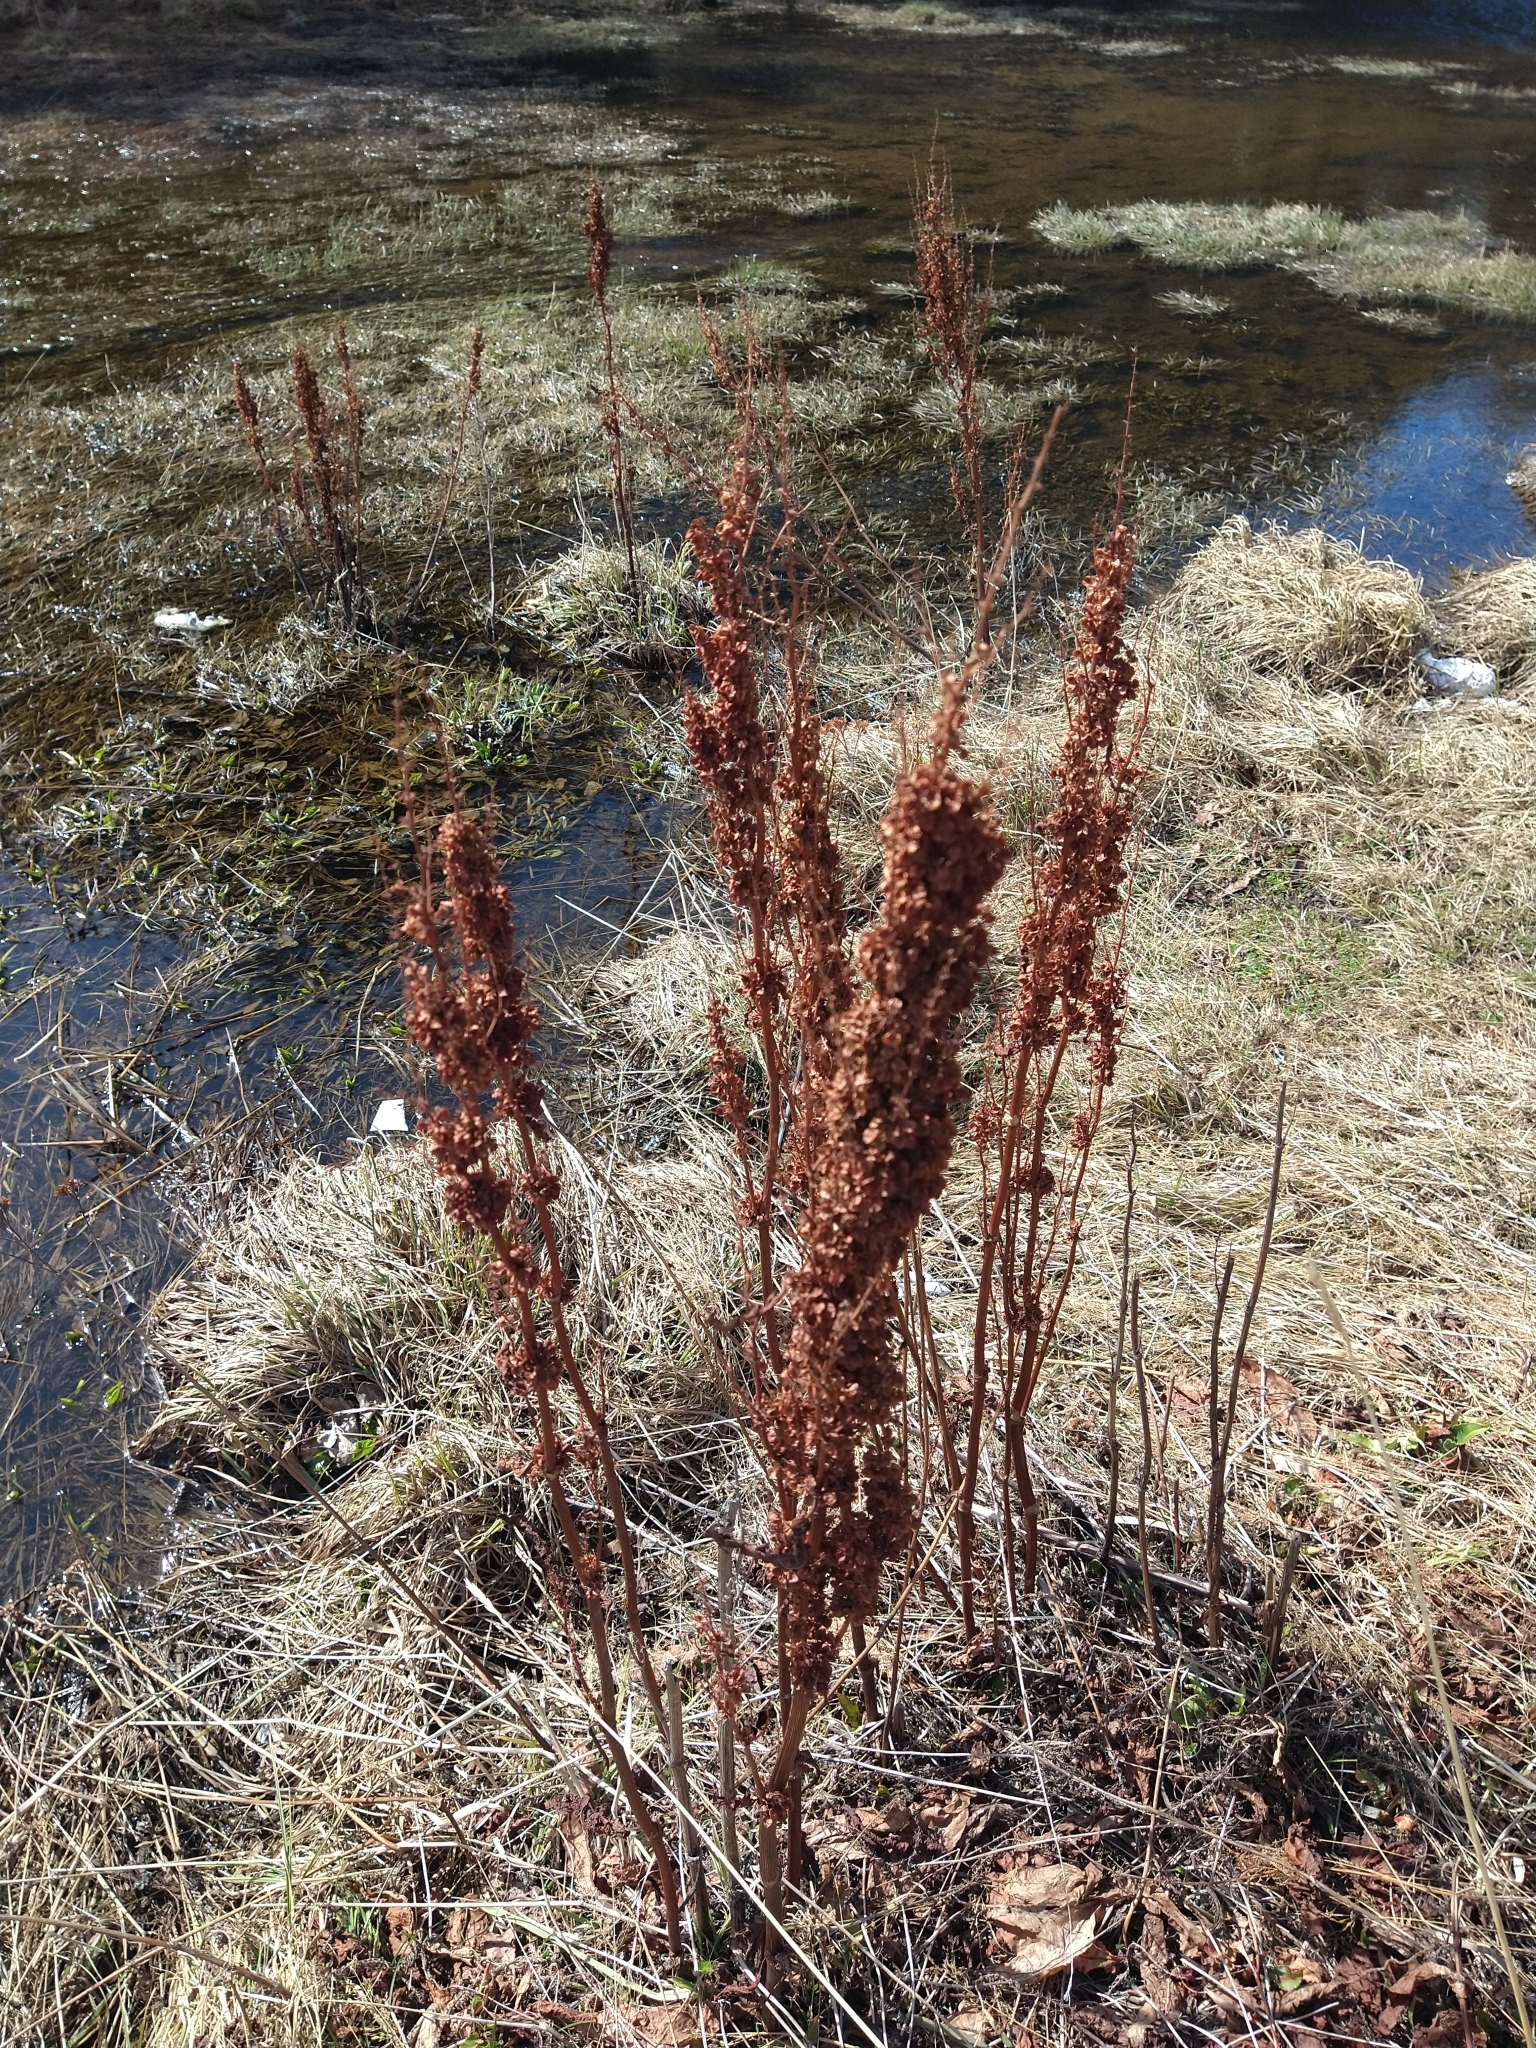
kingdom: Plantae
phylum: Tracheophyta
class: Magnoliopsida
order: Caryophyllales
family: Polygonaceae
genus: Rumex
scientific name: Rumex crispus
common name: Curled dock
